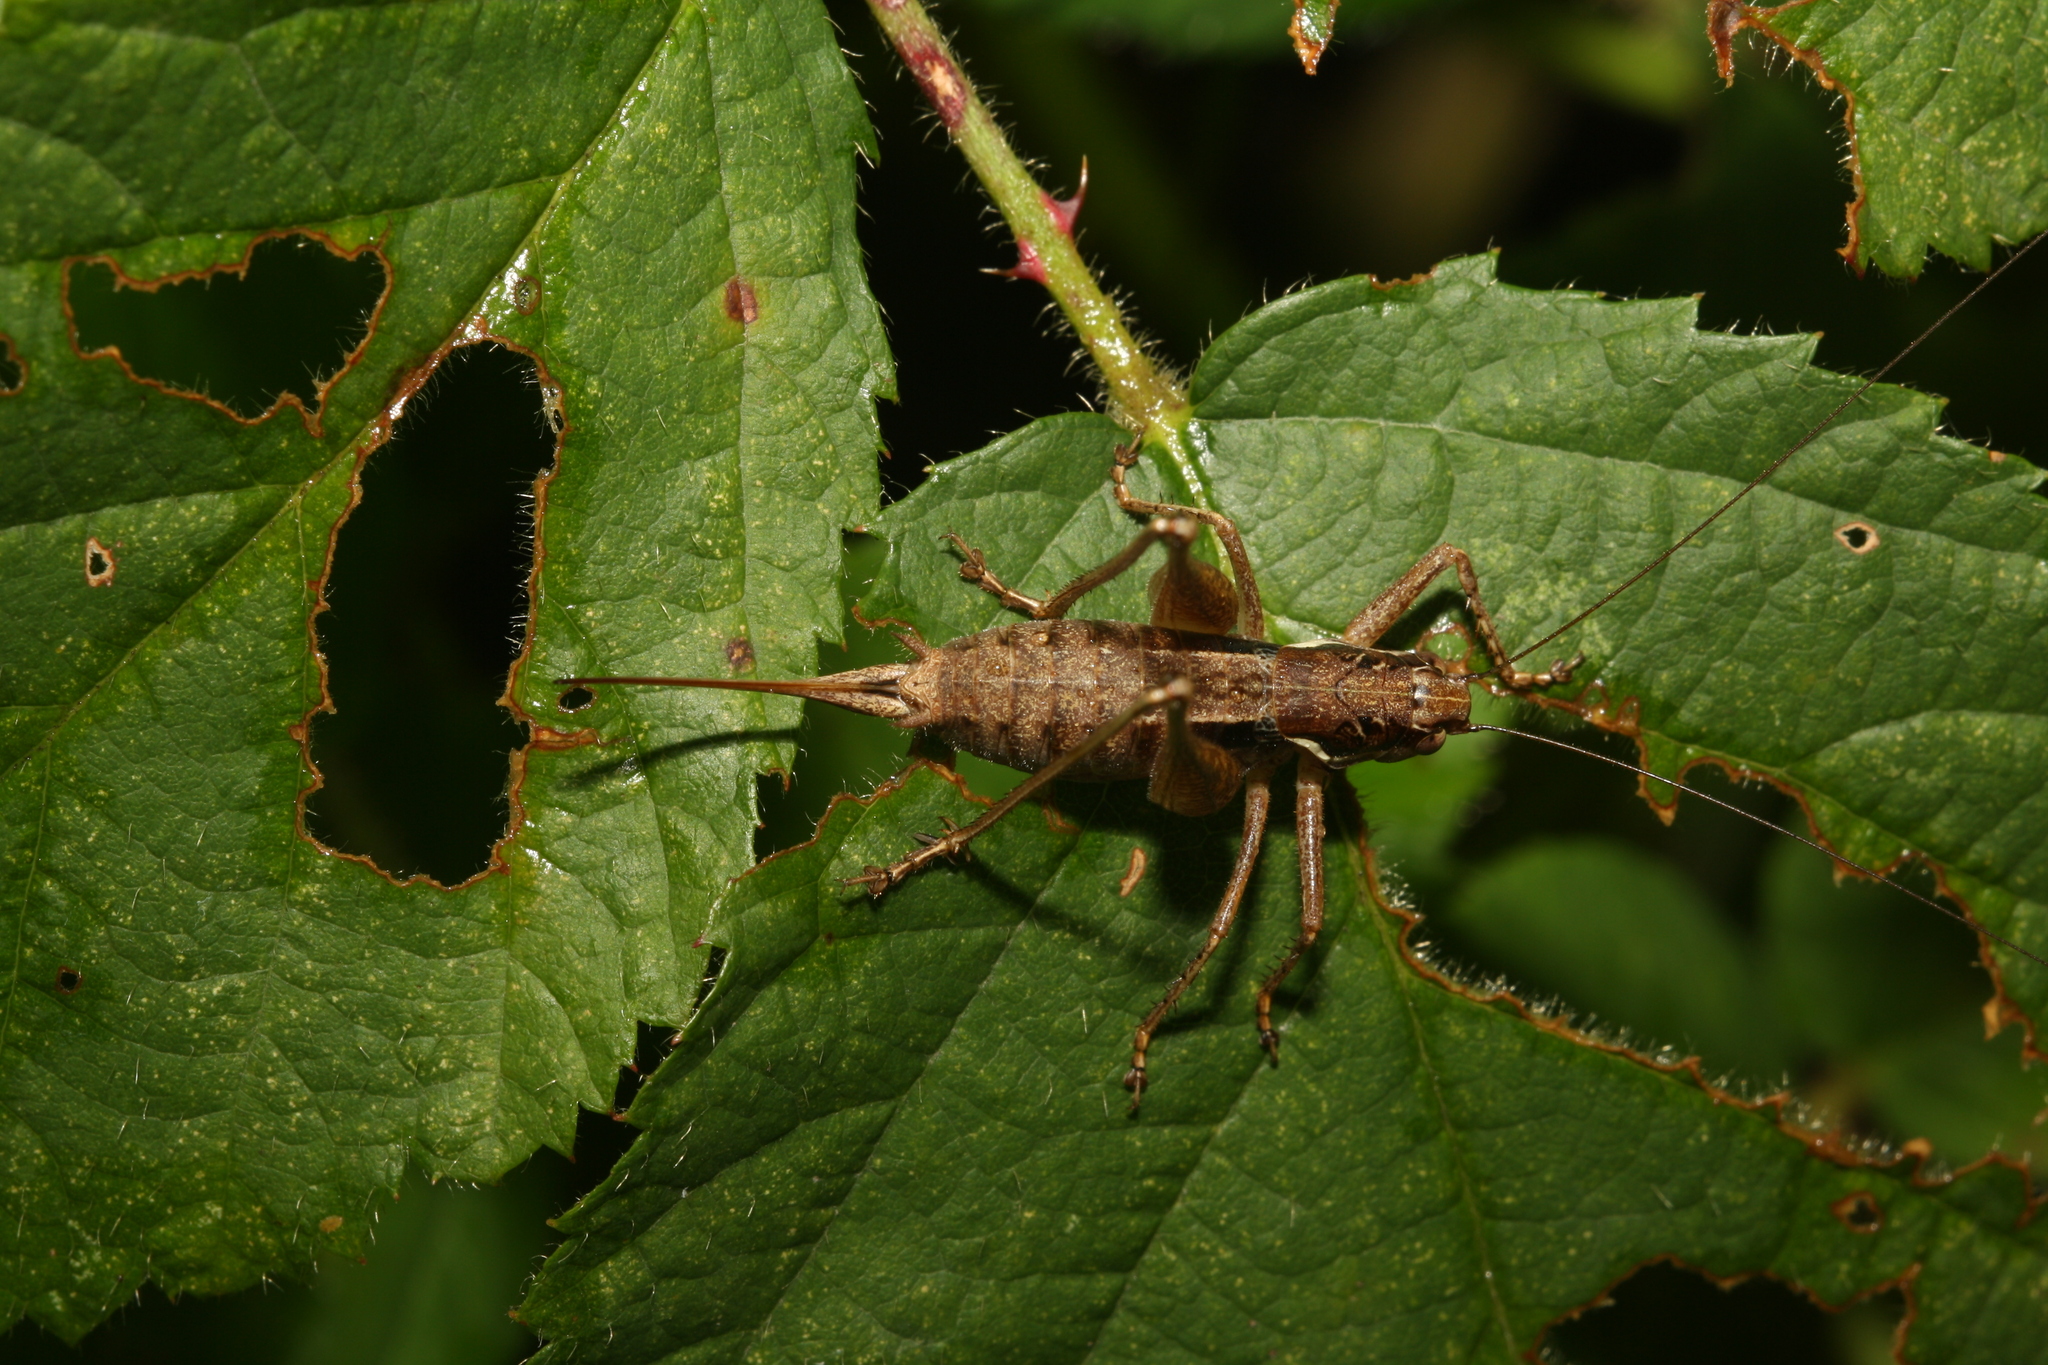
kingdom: Animalia
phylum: Arthropoda
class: Insecta
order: Orthoptera
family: Tettigoniidae
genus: Pachytrachis
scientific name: Pachytrachis gracilis
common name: Graceful bush-cricket
